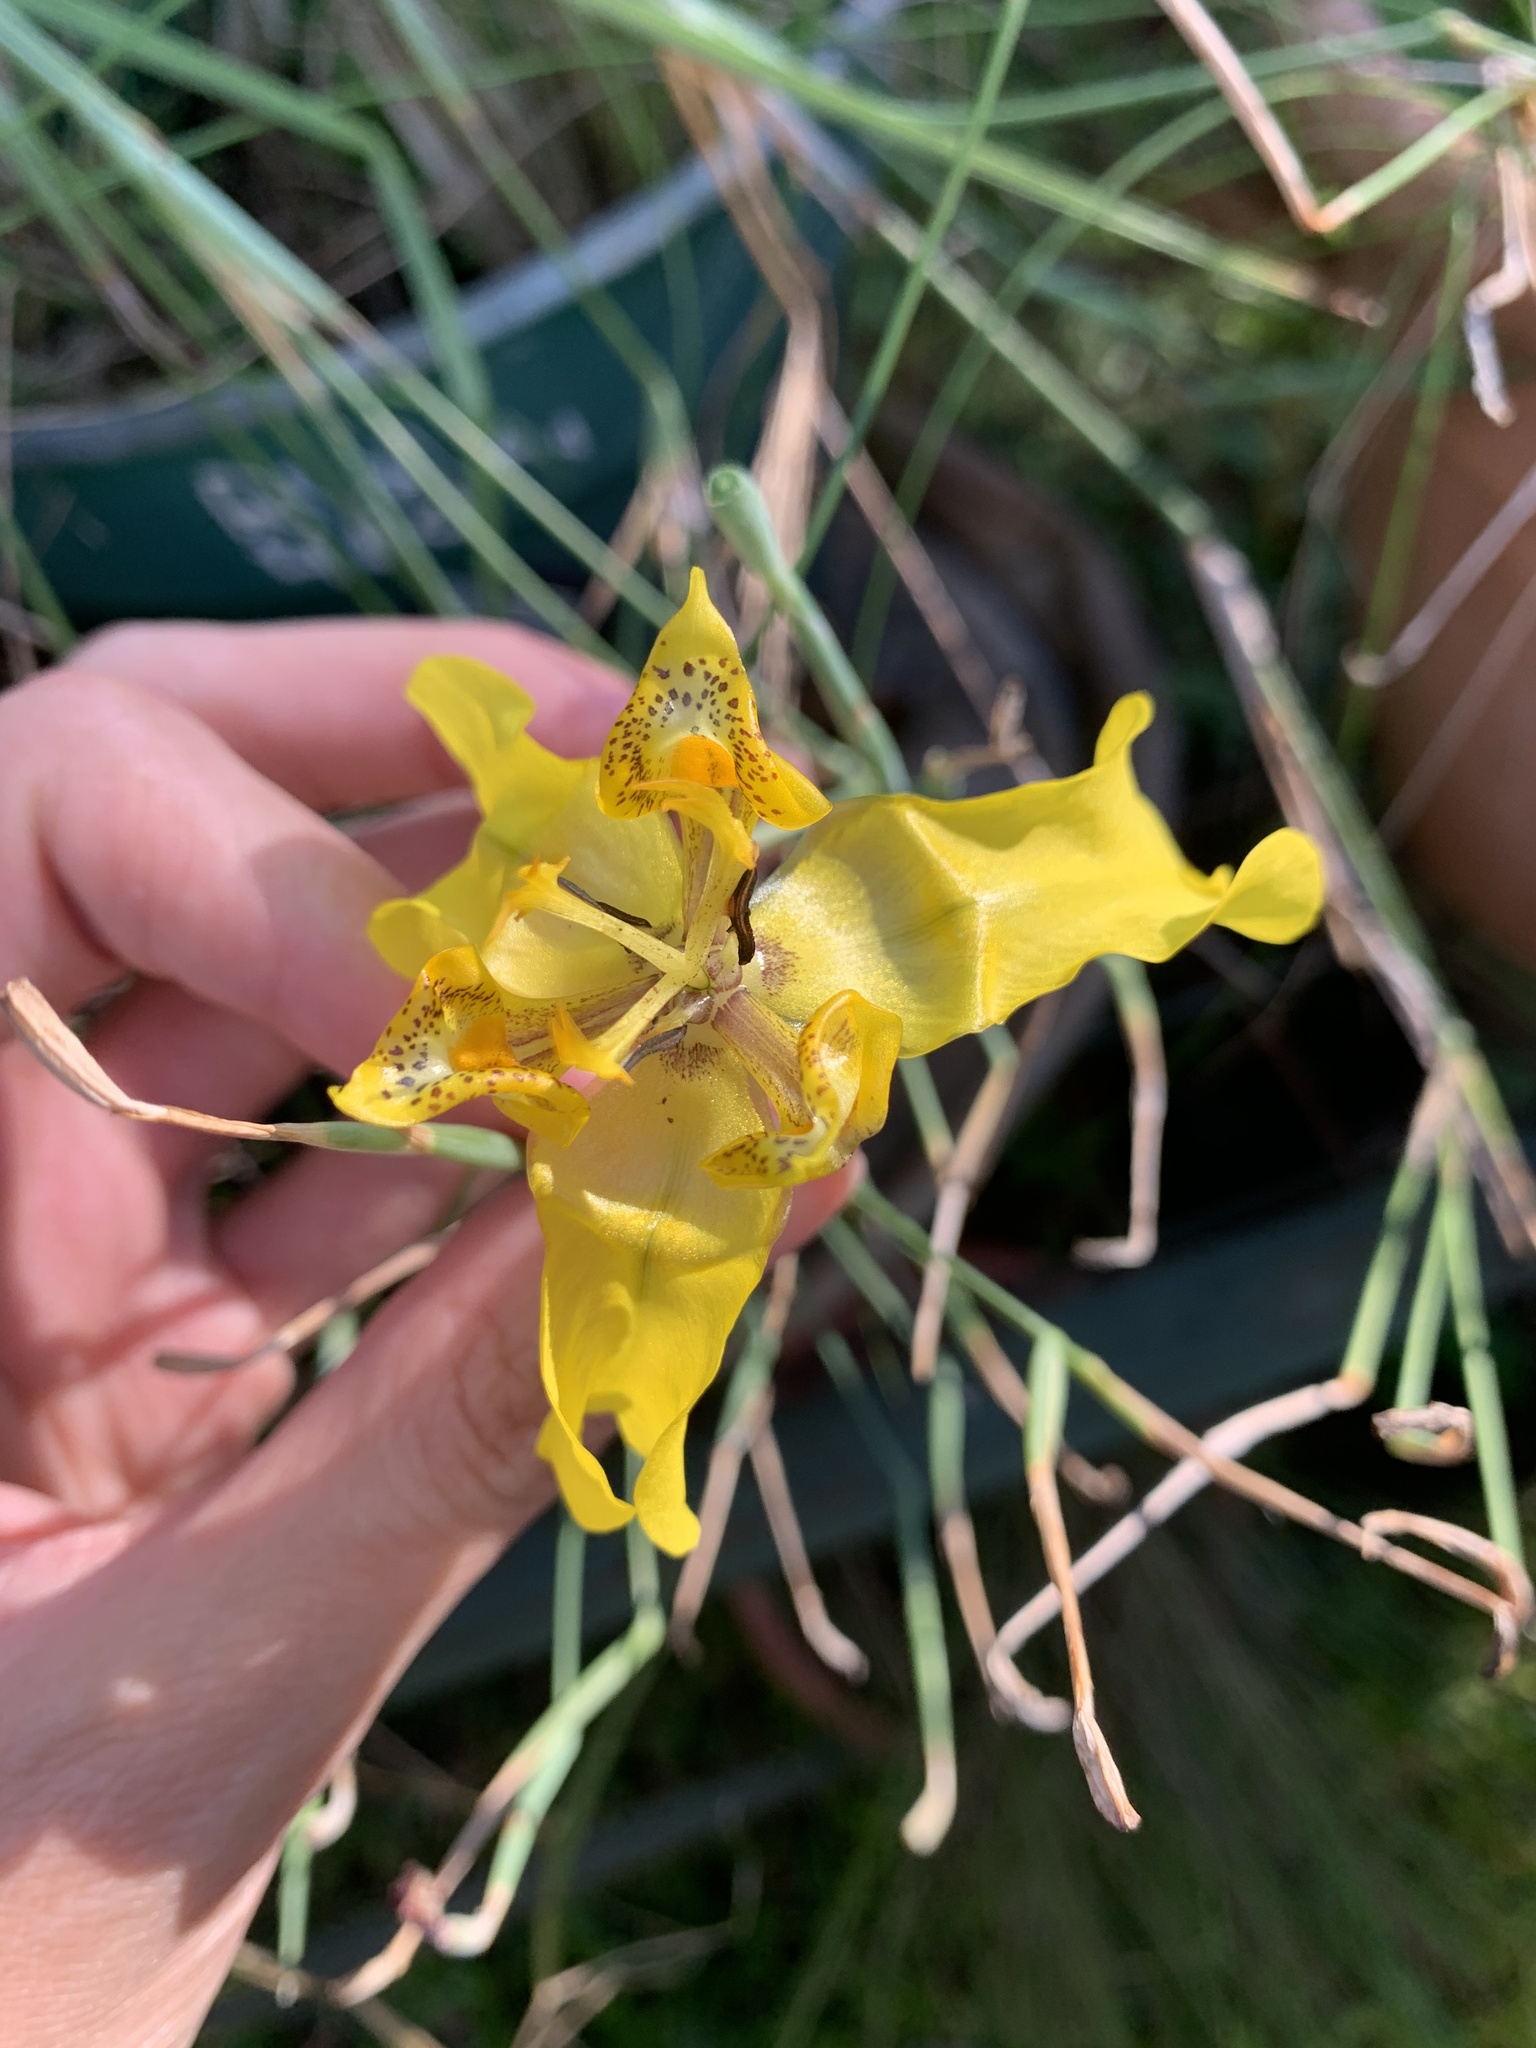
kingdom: Plantae
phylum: Tracheophyta
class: Liliopsida
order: Asparagales
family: Iridaceae
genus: Cypella
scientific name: Cypella armosa
